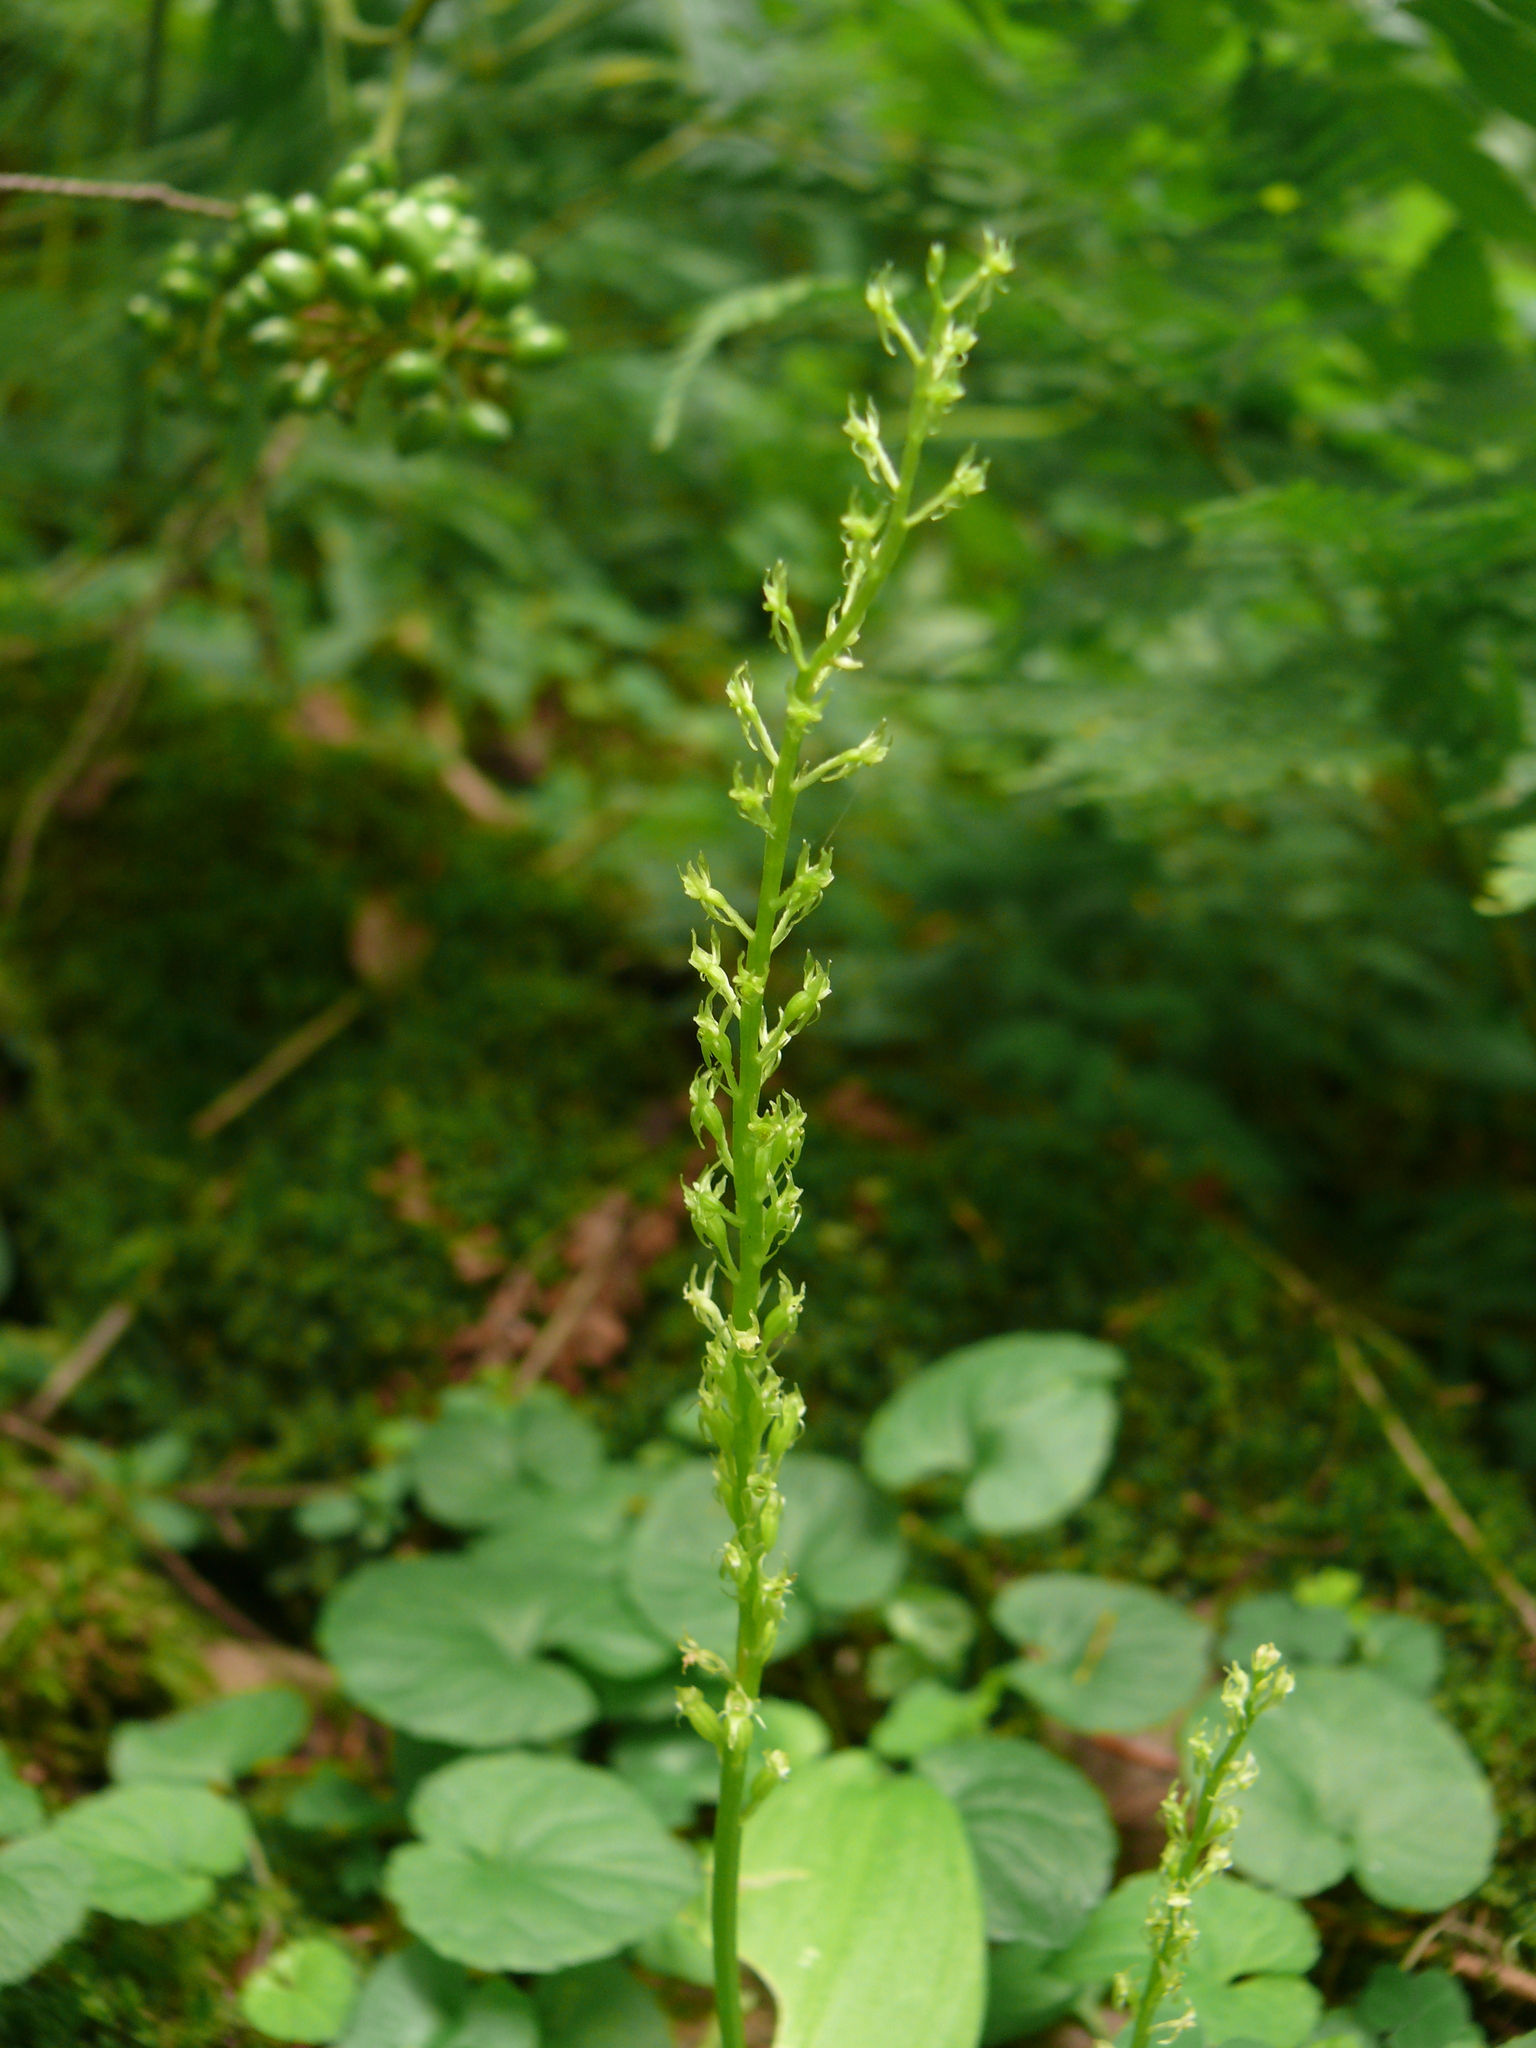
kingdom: Plantae
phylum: Tracheophyta
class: Liliopsida
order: Asparagales
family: Orchidaceae
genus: Malaxis
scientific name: Malaxis monophyllos
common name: White adder's-mouth
